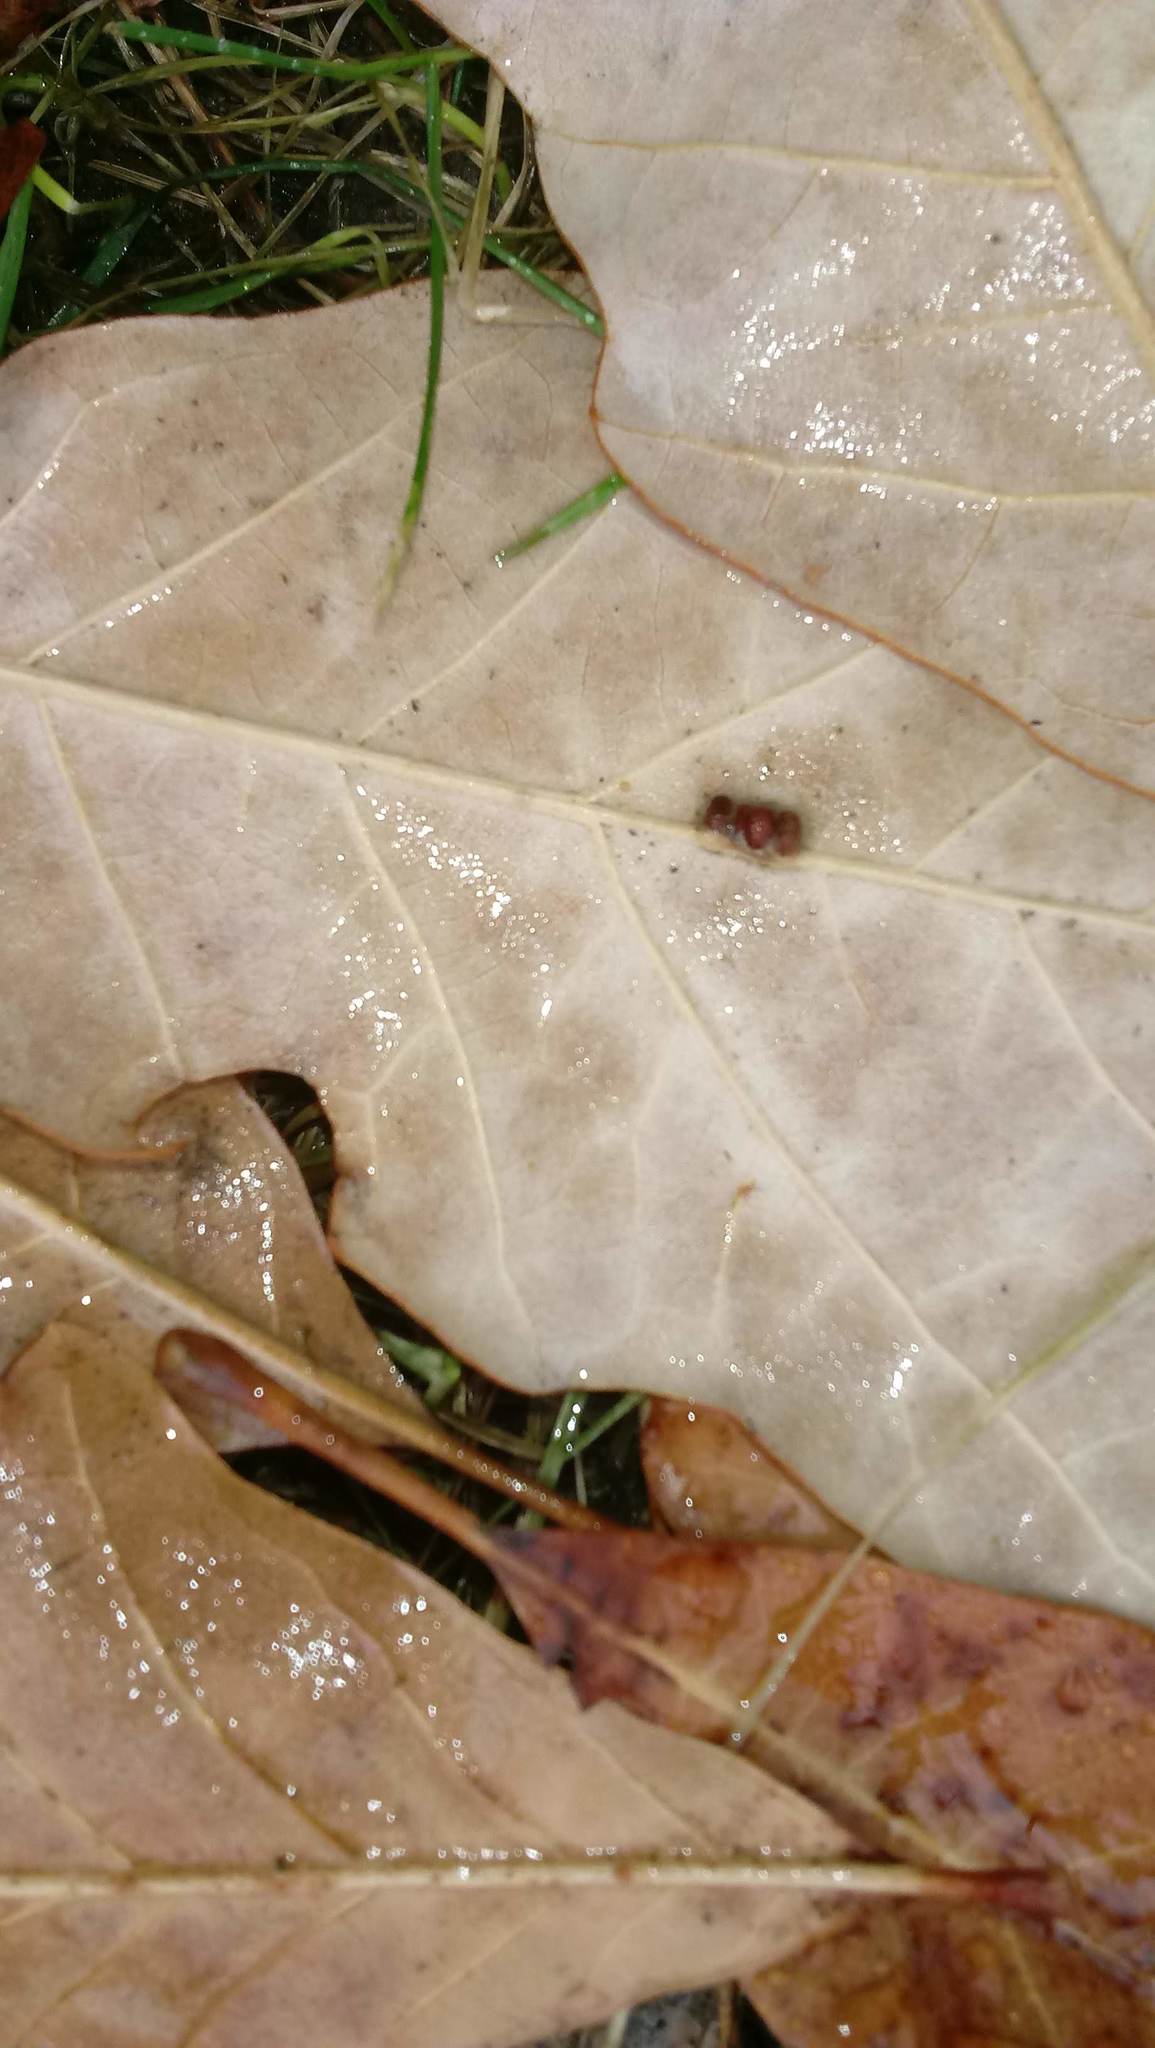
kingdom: Animalia
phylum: Arthropoda
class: Insecta
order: Hymenoptera
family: Cynipidae
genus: Andricus
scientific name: Andricus Druon ignotum
